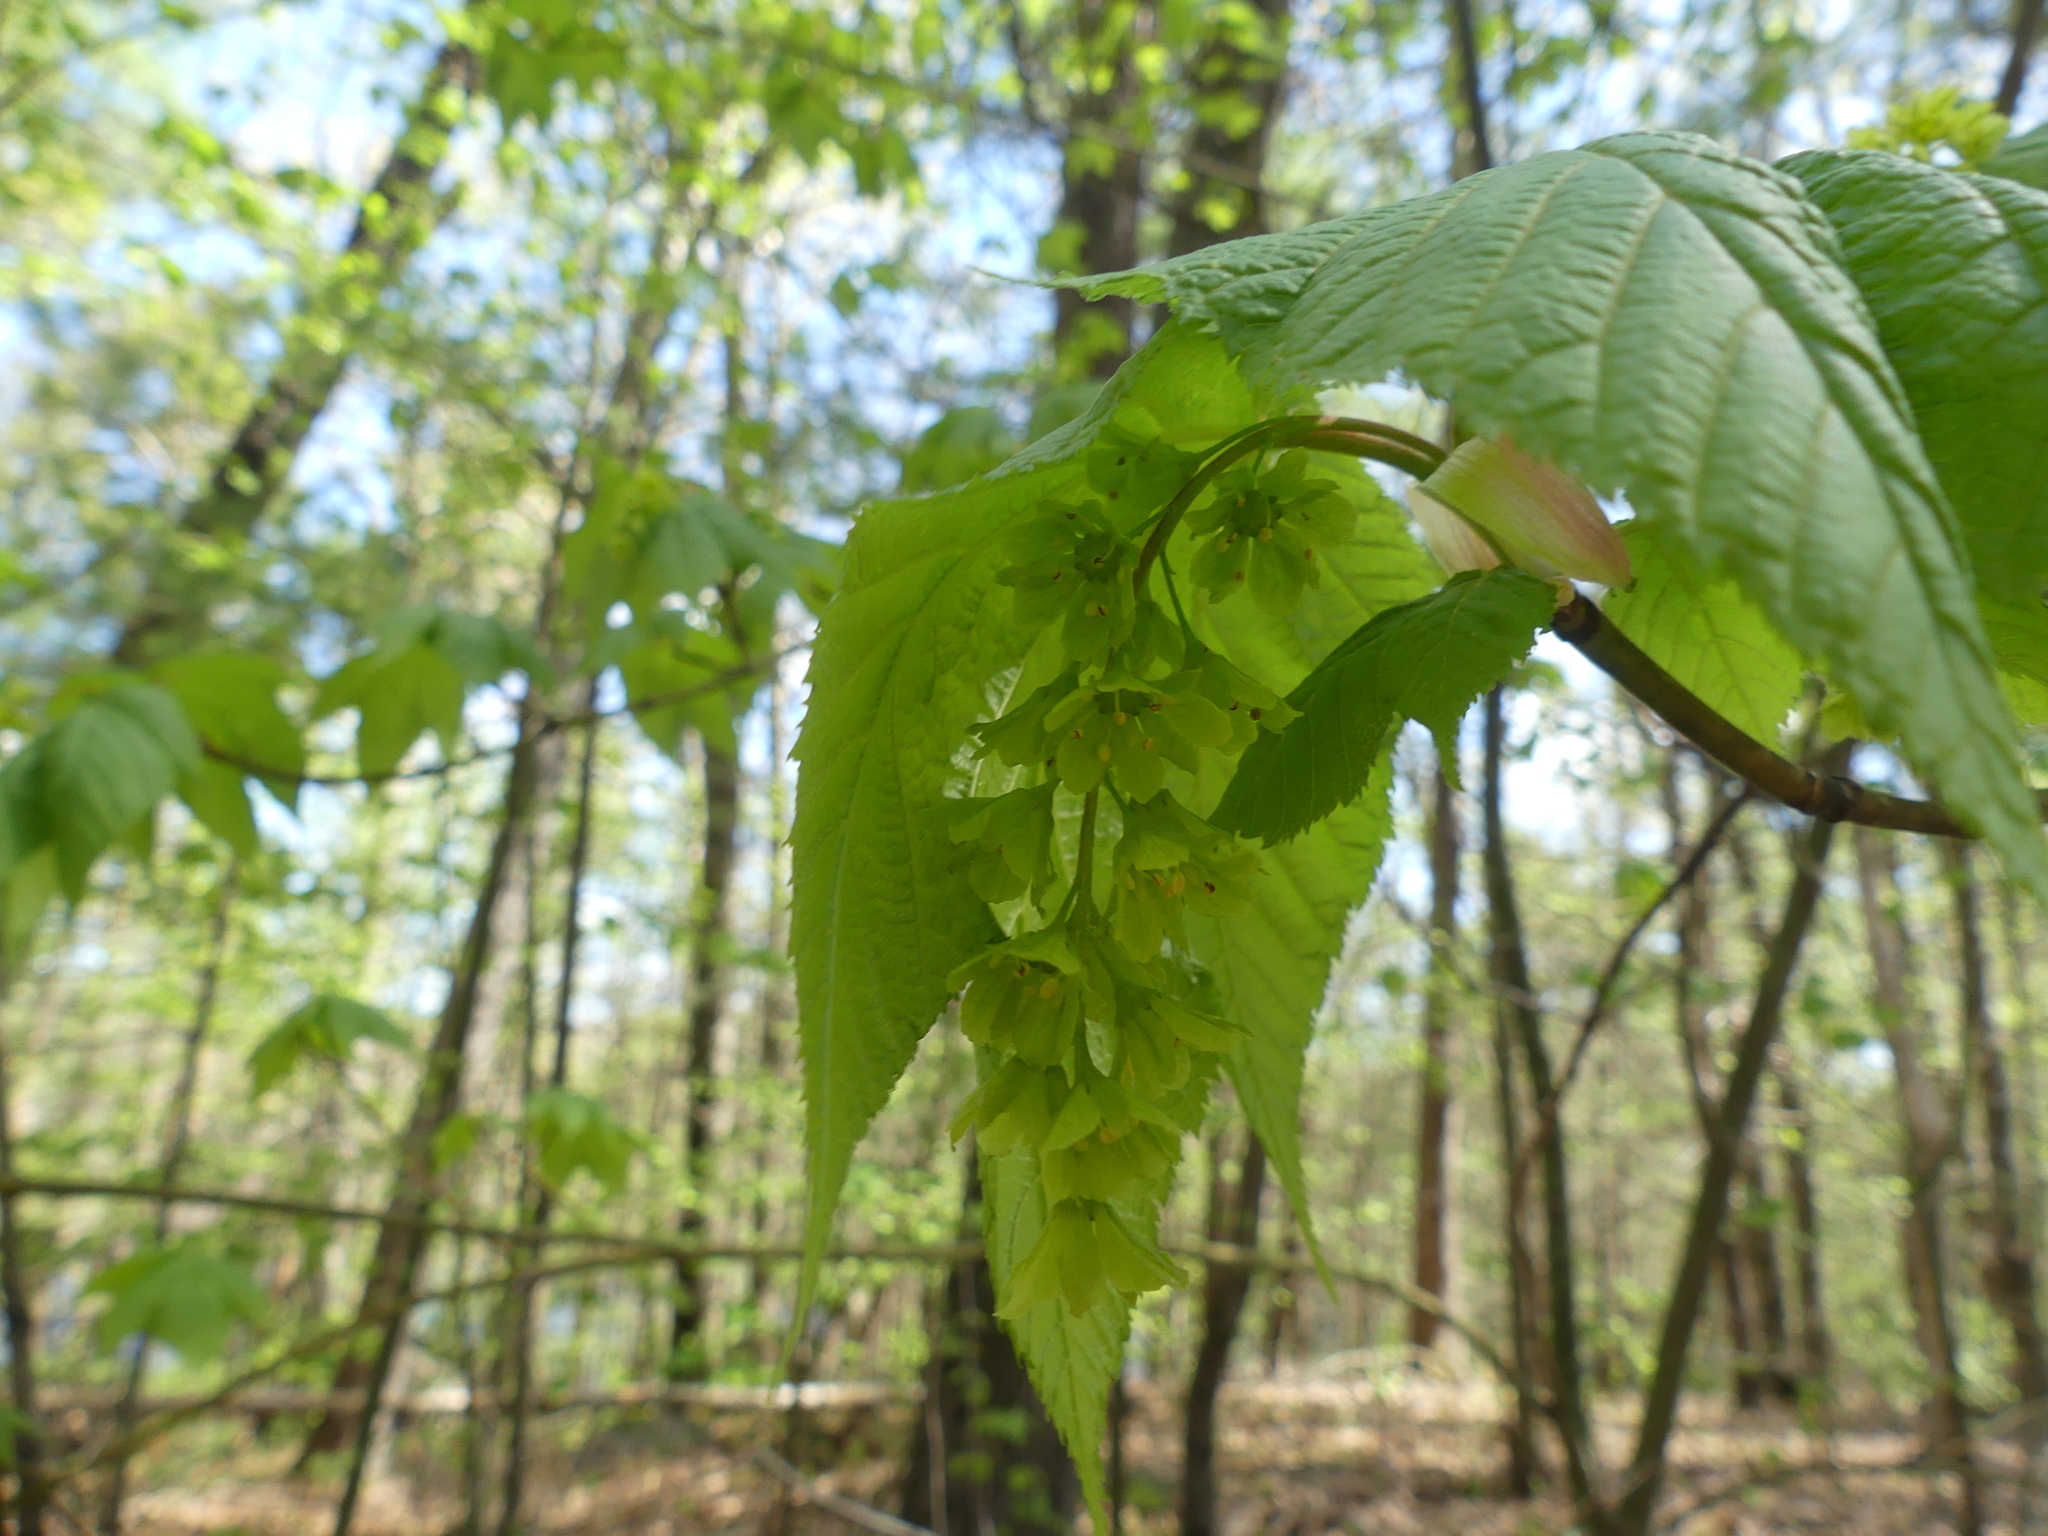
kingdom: Plantae
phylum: Tracheophyta
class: Magnoliopsida
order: Sapindales
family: Sapindaceae
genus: Acer
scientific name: Acer pensylvanicum
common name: Moosewood
